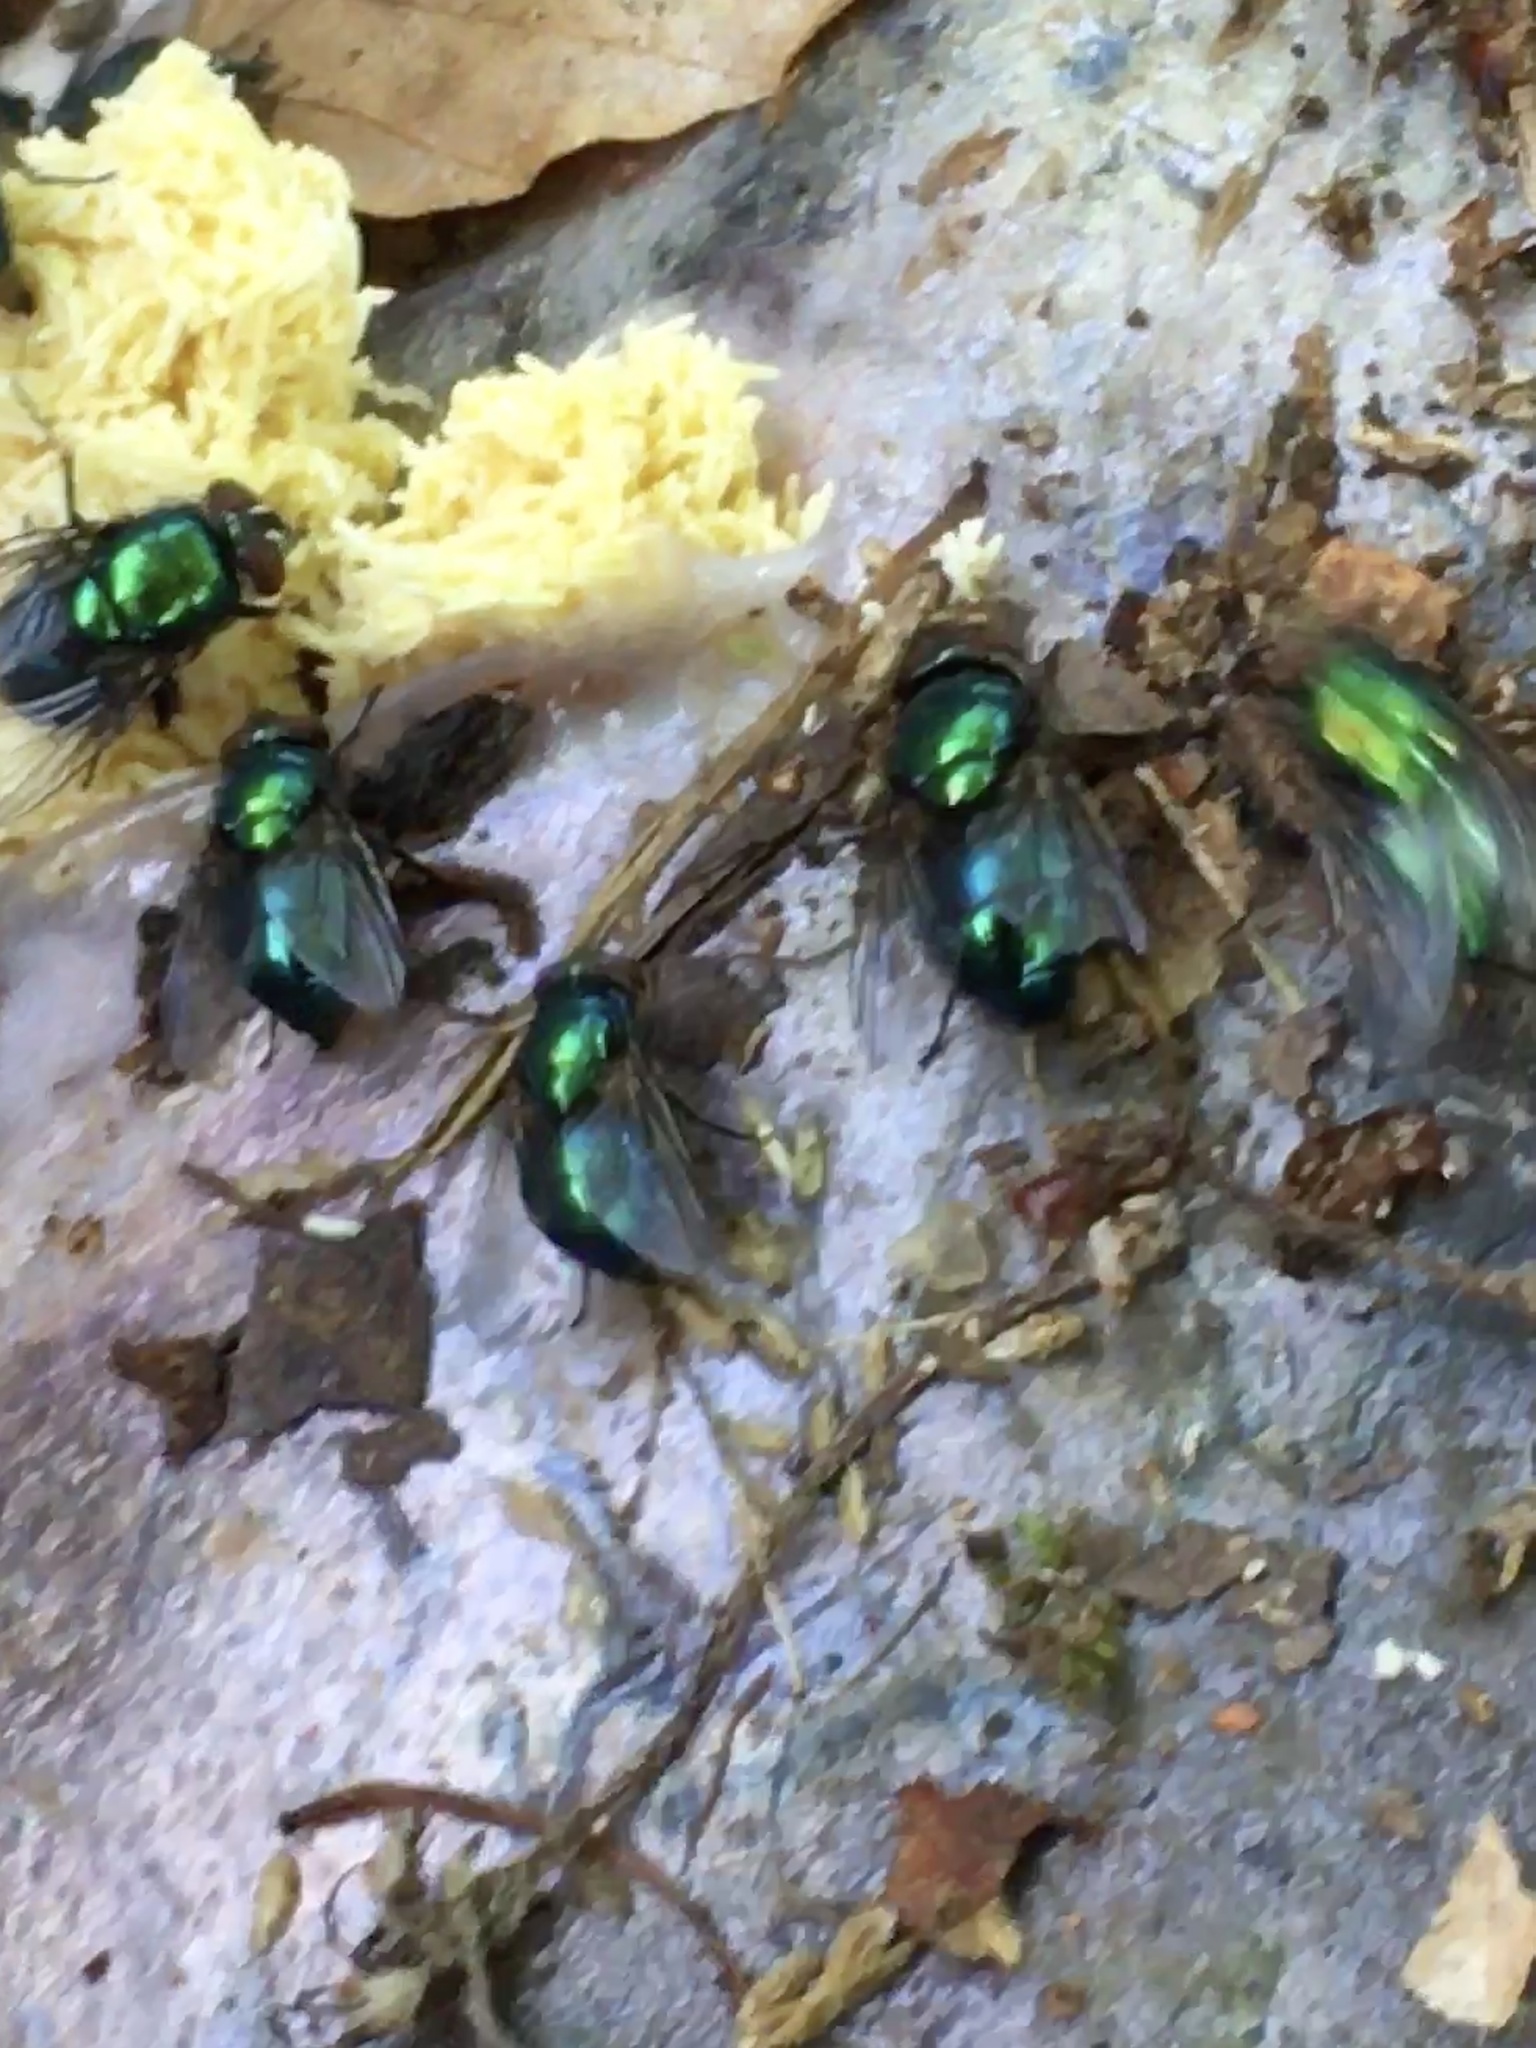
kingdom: Animalia
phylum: Arthropoda
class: Insecta
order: Diptera
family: Calliphoridae
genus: Lucilia
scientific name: Lucilia sericata
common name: Blow fly
